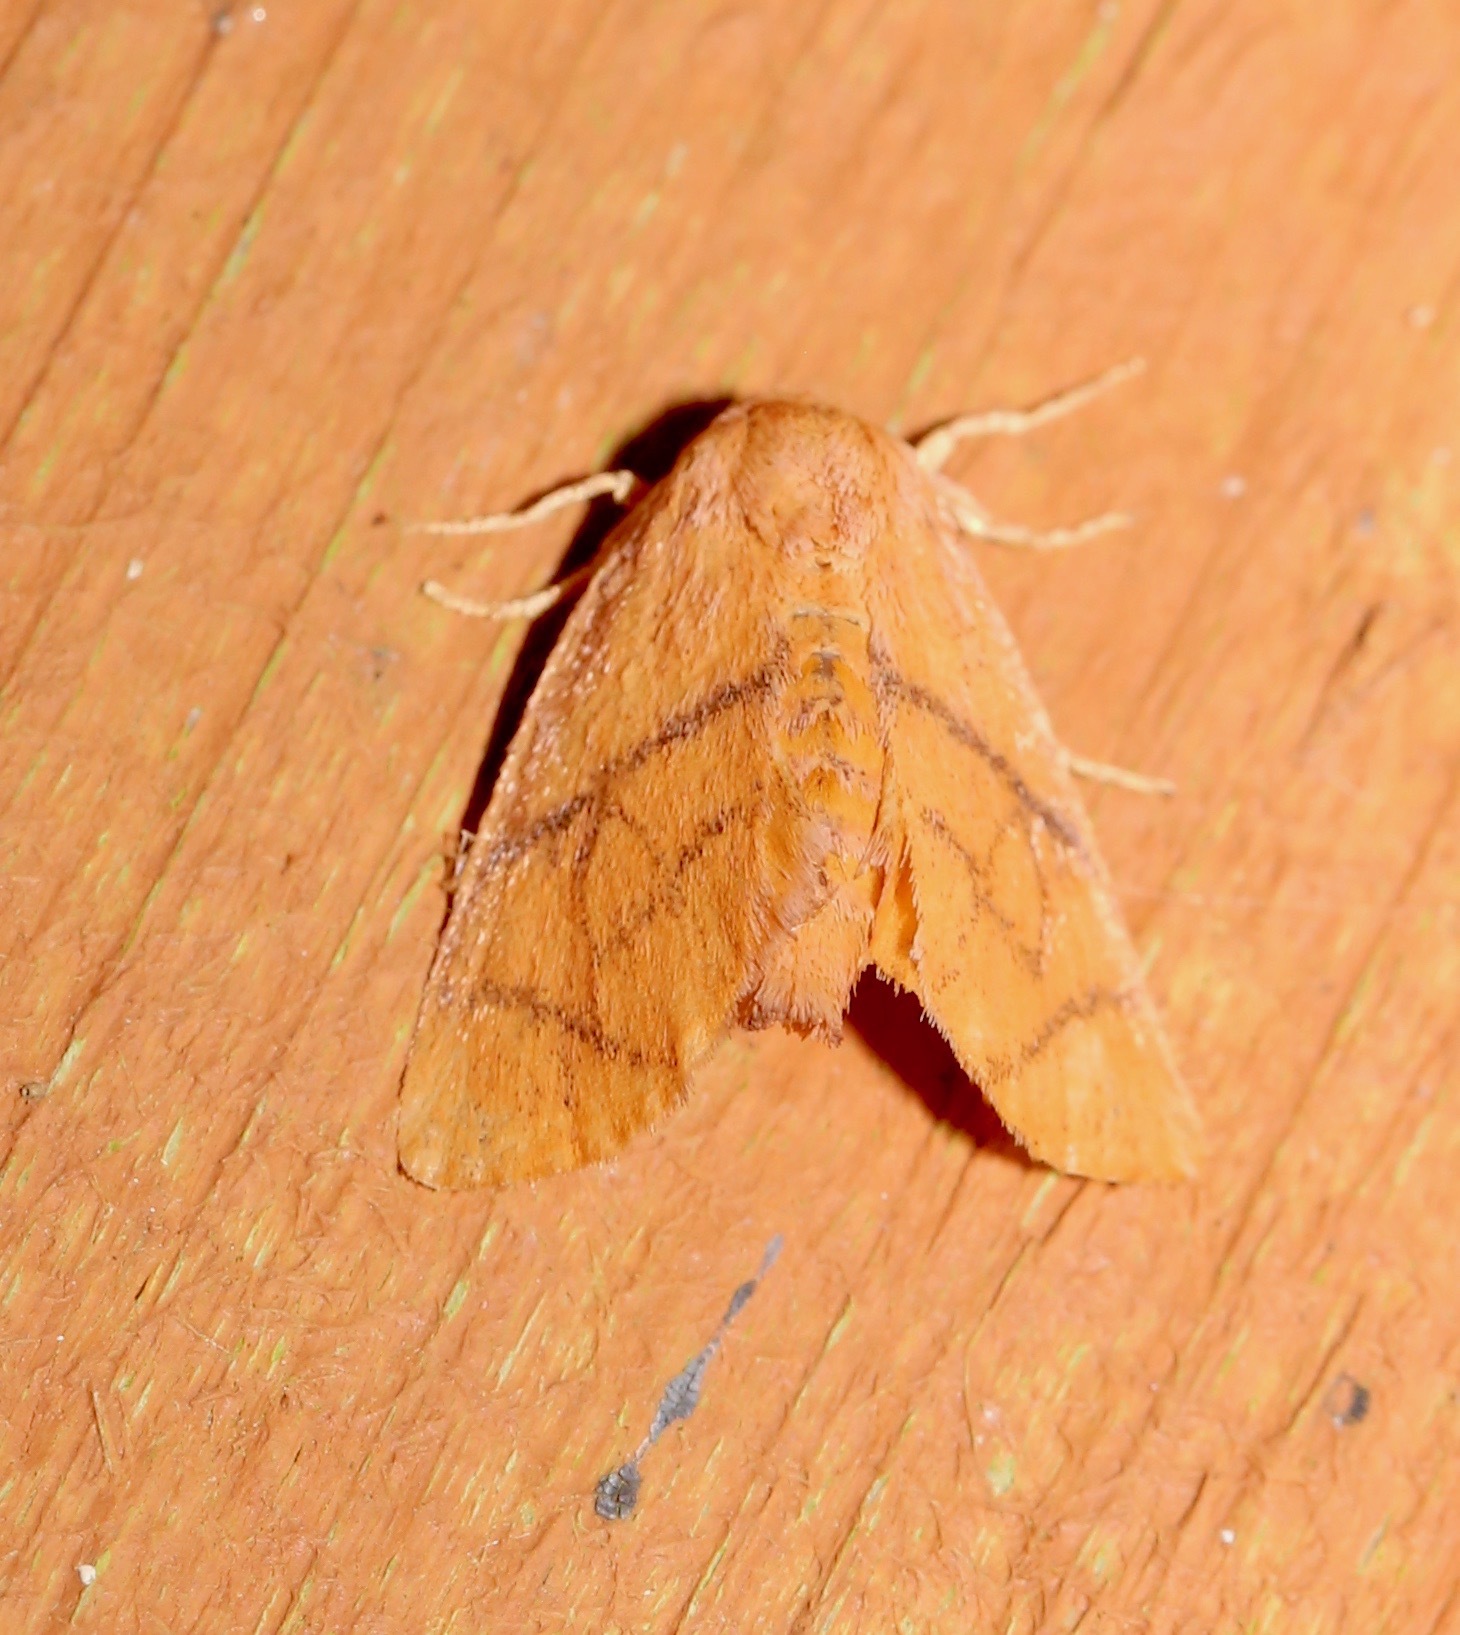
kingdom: Animalia
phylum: Arthropoda
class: Insecta
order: Lepidoptera
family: Limacodidae
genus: Apoda
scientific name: Apoda y-inversa
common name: Yellow-collared slug moth
